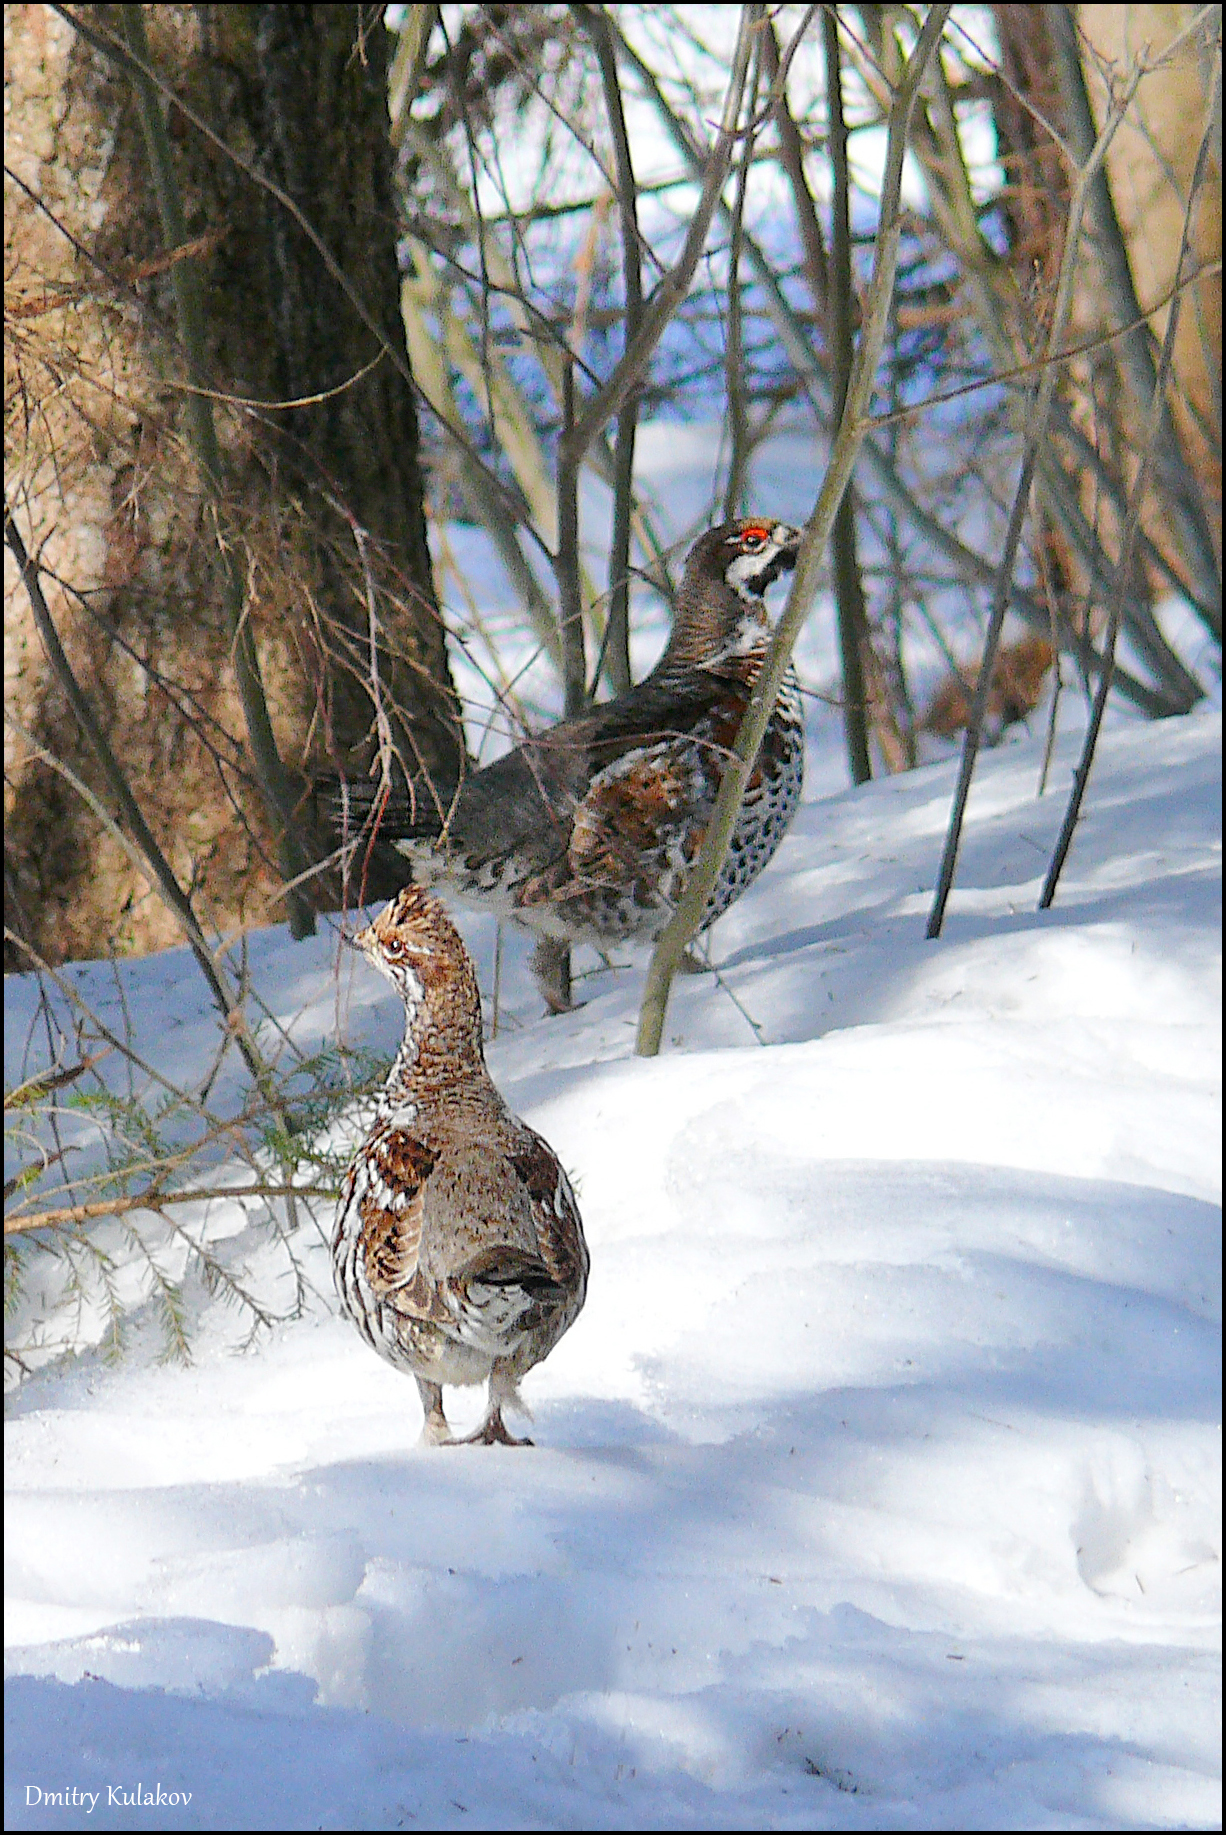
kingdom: Animalia
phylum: Chordata
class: Aves
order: Galliformes
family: Phasianidae
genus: Tetrastes
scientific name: Tetrastes bonasia
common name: Hazel grouse
